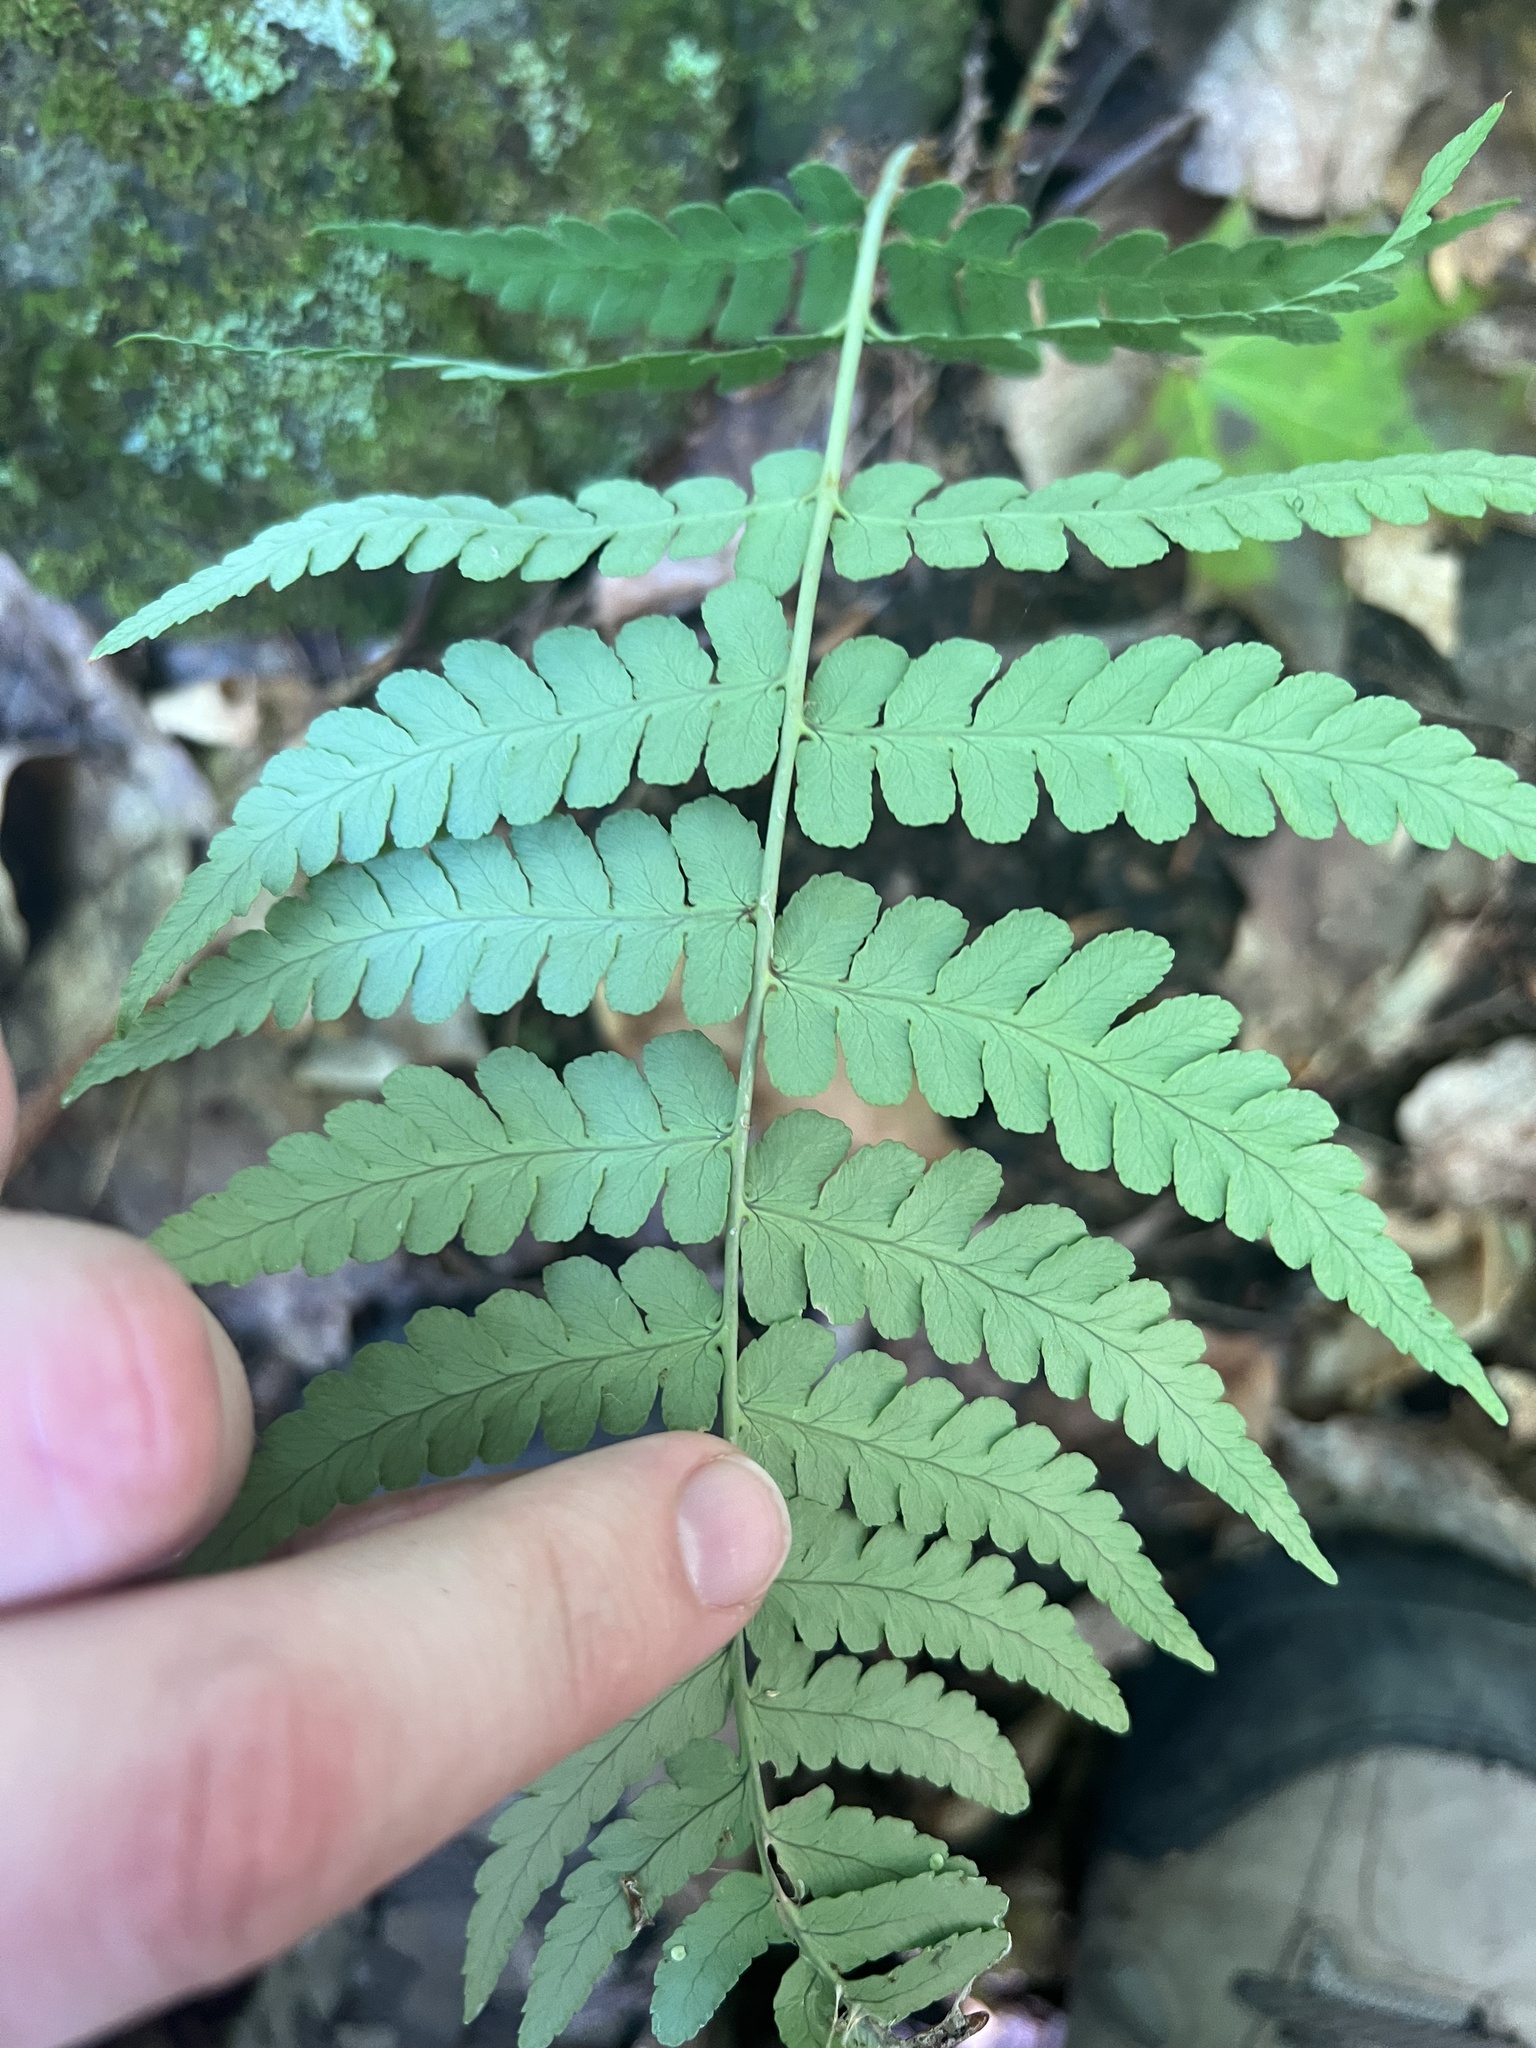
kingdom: Plantae
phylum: Tracheophyta
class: Polypodiopsida
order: Polypodiales
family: Dryopteridaceae
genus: Dryopteris
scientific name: Dryopteris marginalis
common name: Marginal wood fern
